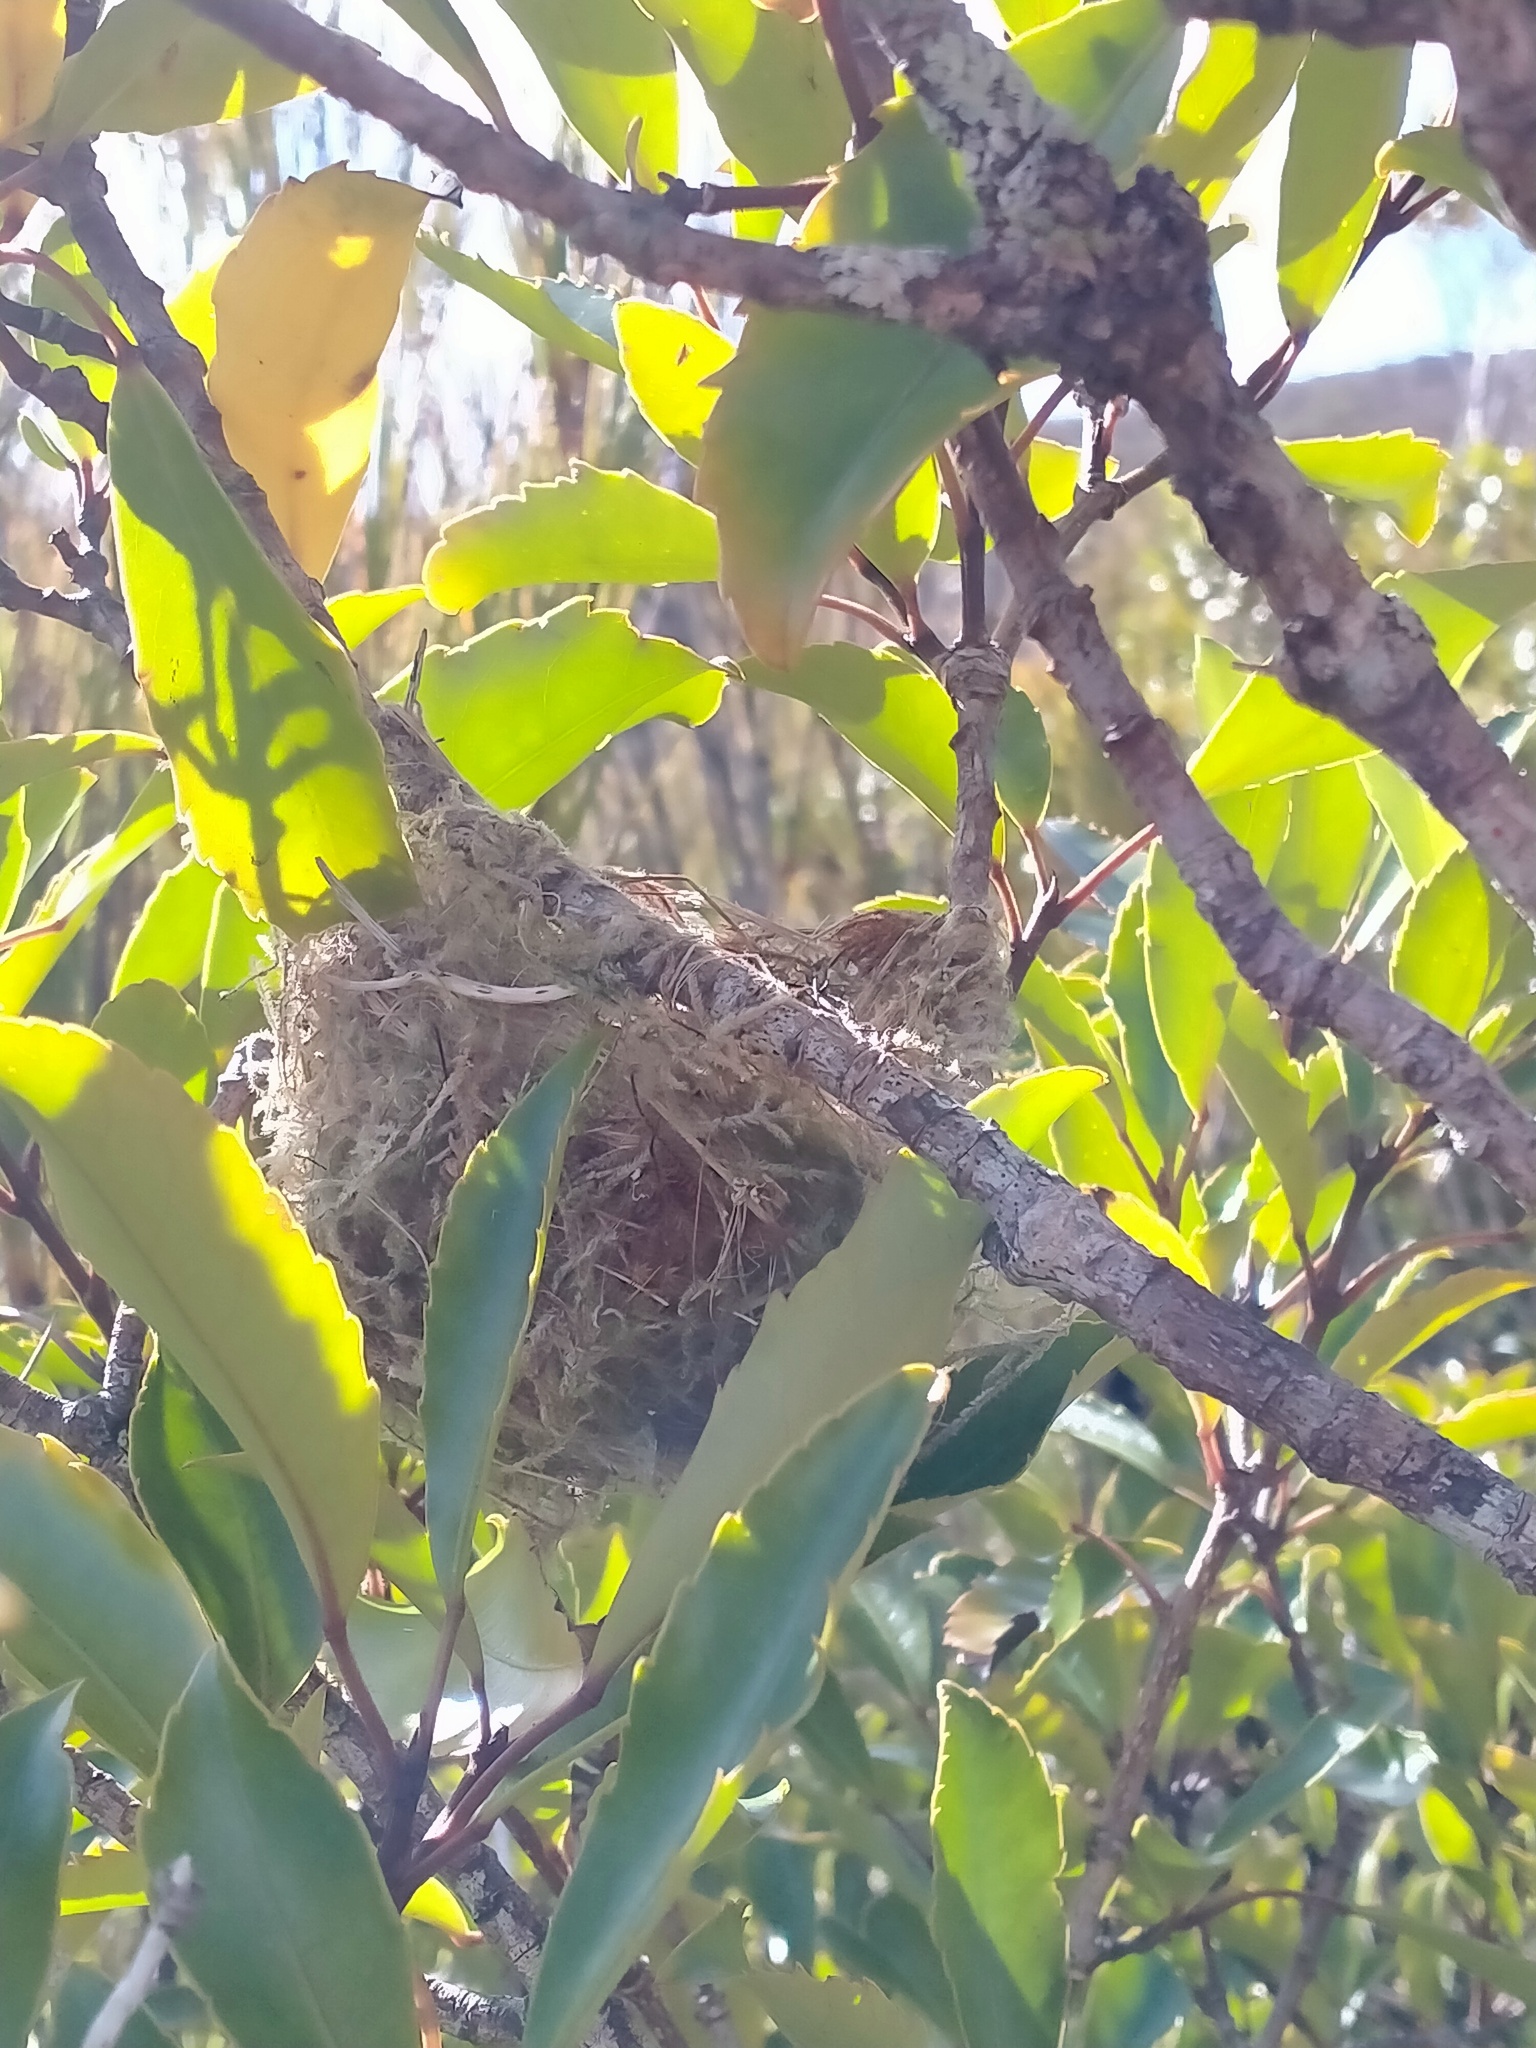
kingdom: Animalia
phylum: Chordata
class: Aves
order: Passeriformes
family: Zosteropidae
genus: Zosterops
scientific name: Zosterops lateralis
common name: Silvereye
